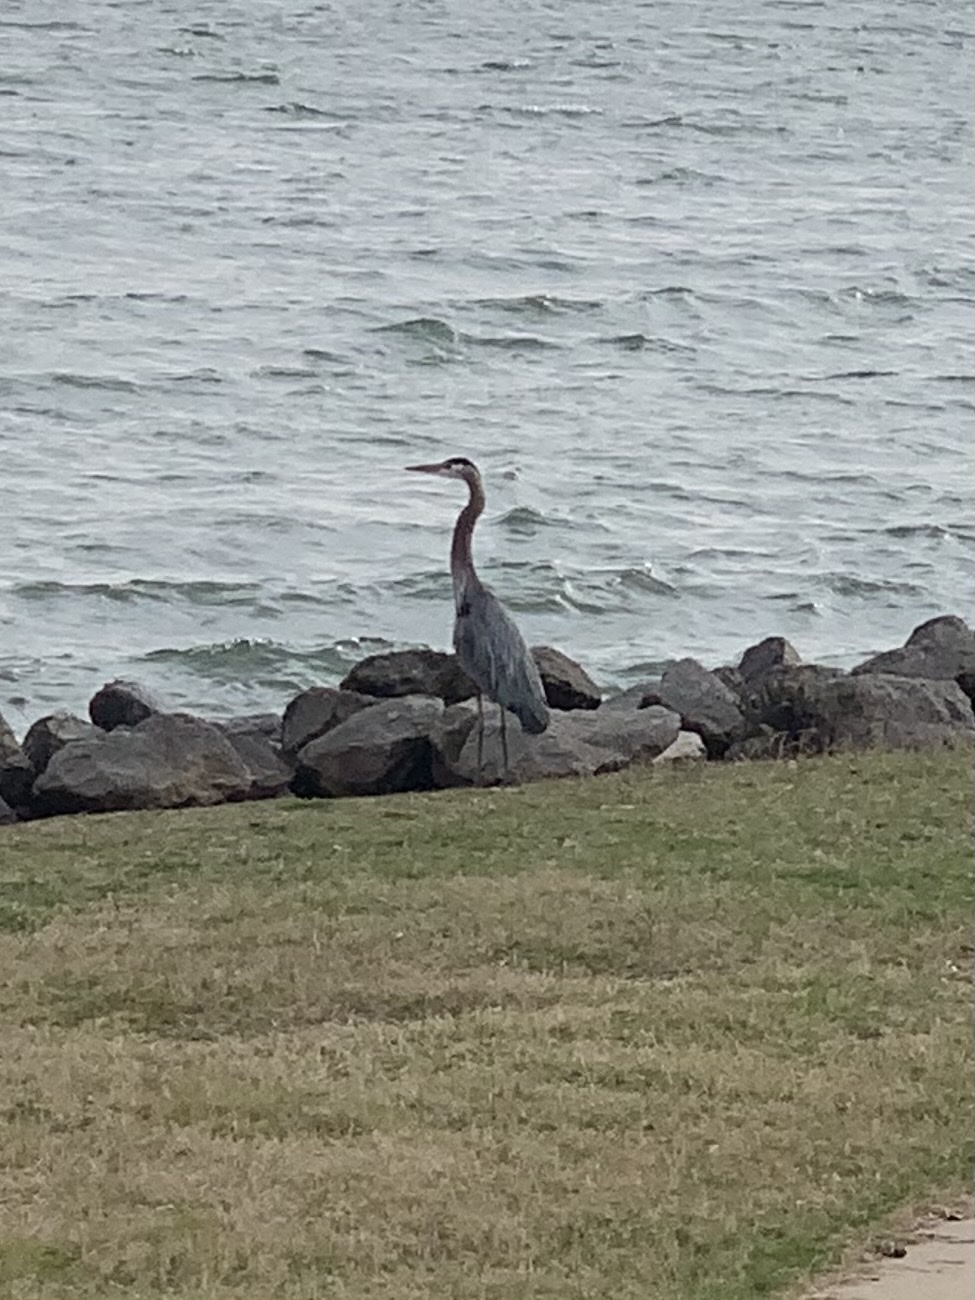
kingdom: Animalia
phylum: Chordata
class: Aves
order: Pelecaniformes
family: Ardeidae
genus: Ardea
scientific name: Ardea herodias
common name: Great blue heron
